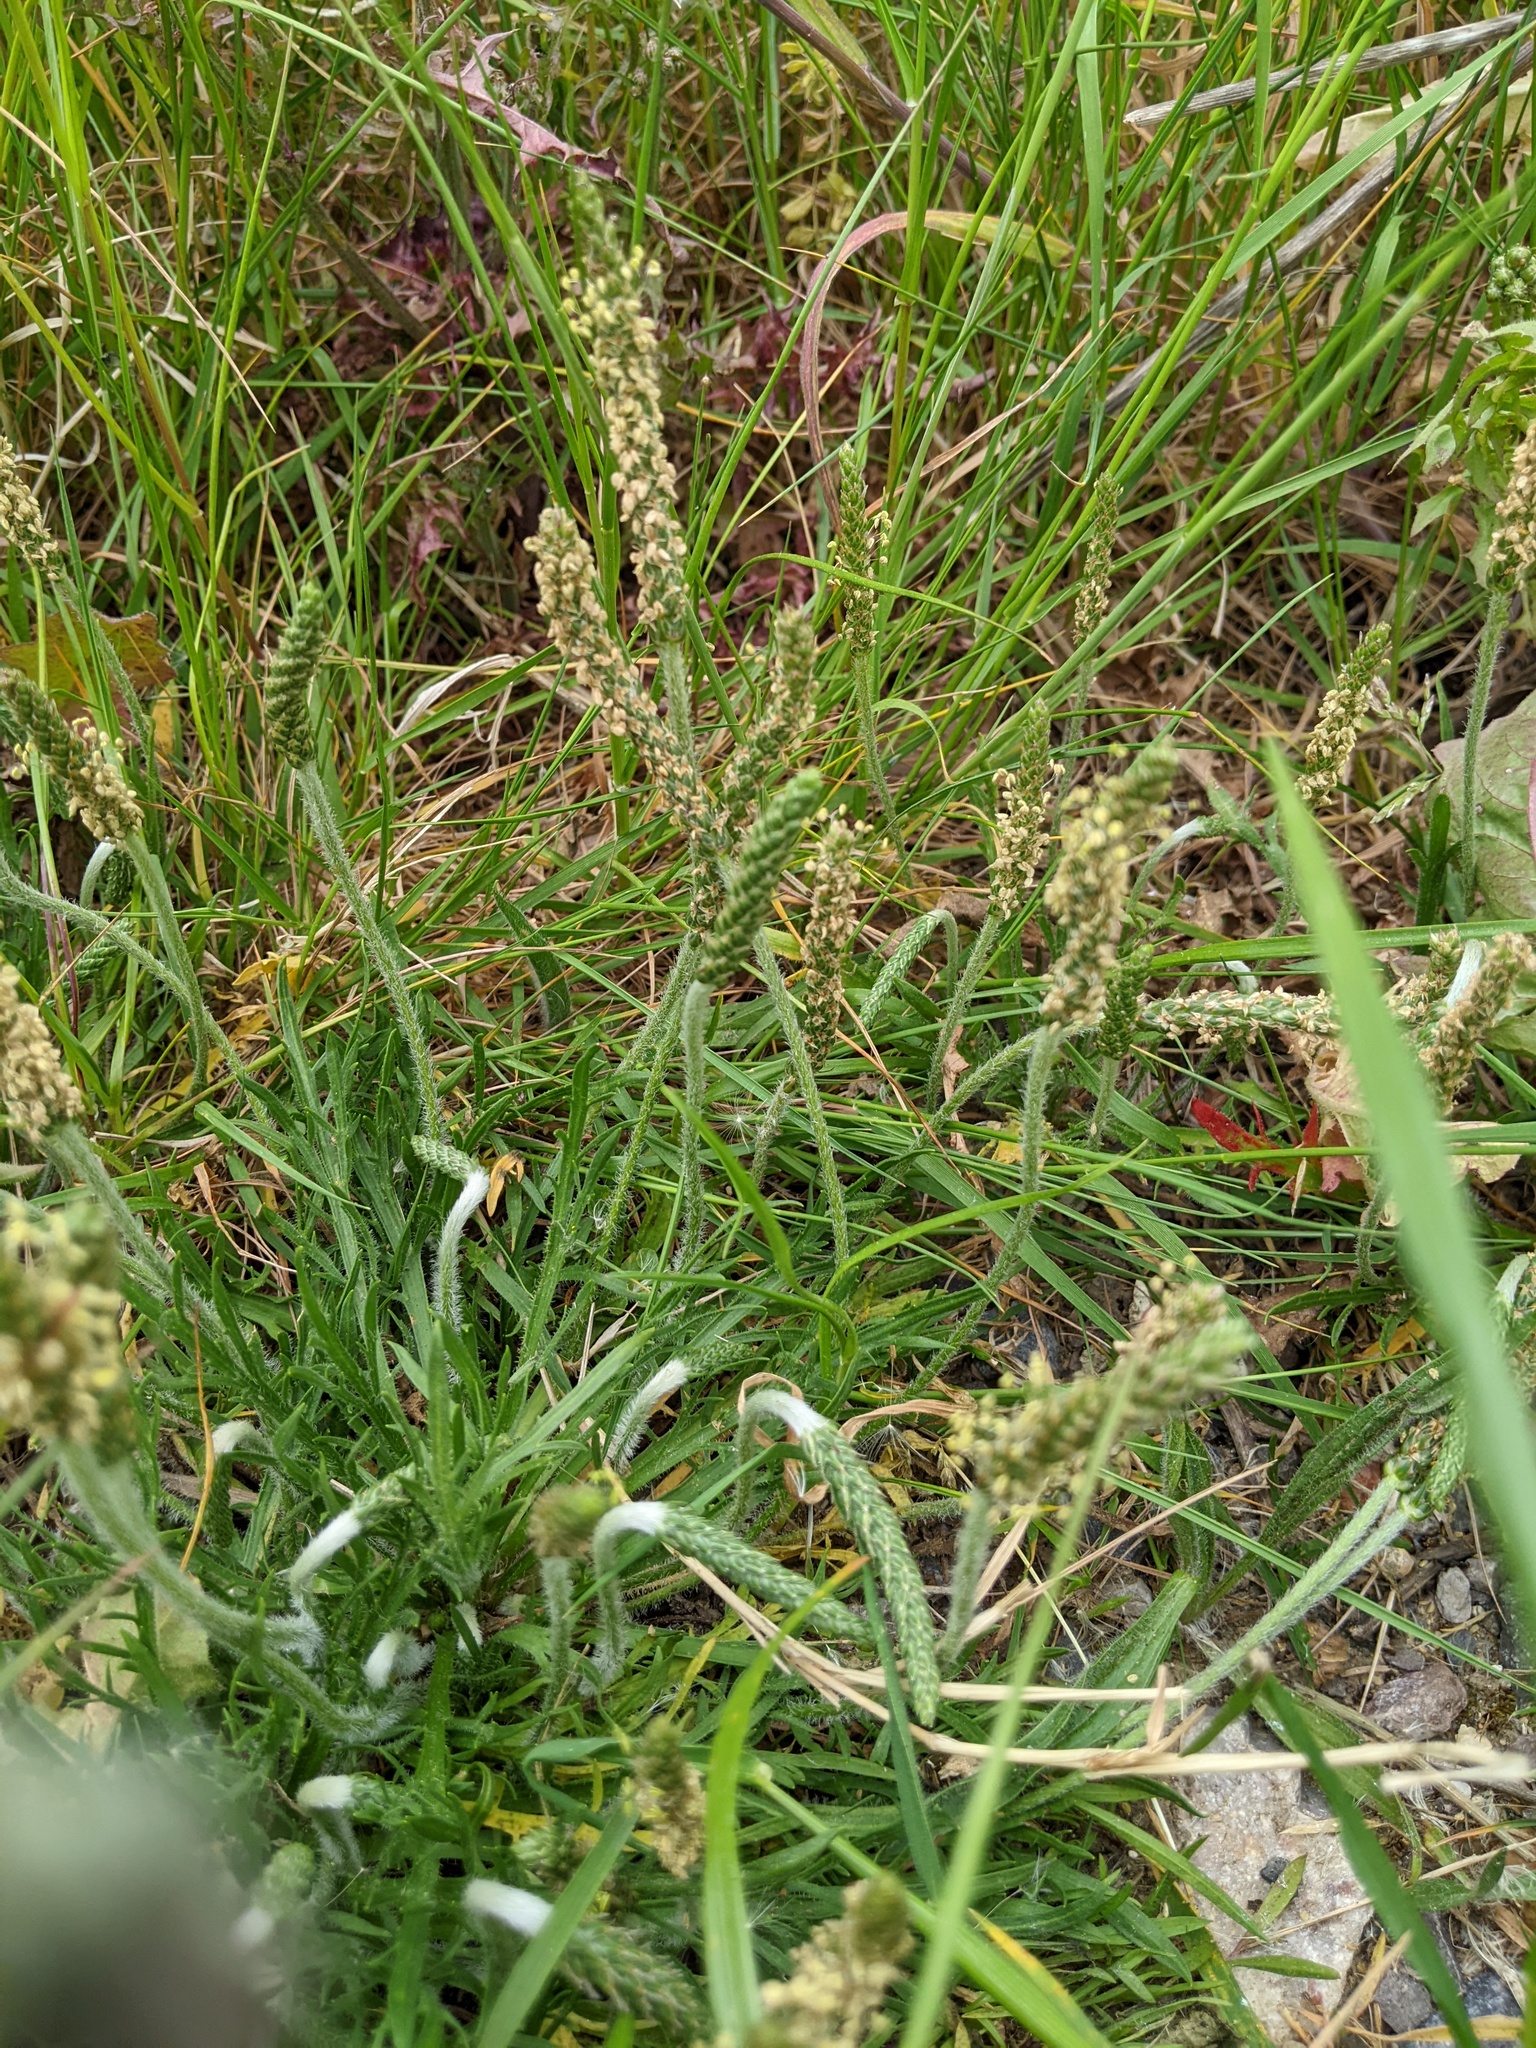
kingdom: Plantae
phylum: Tracheophyta
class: Magnoliopsida
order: Lamiales
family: Plantaginaceae
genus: Plantago
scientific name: Plantago coronopus
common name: Buck's-horn plantain
